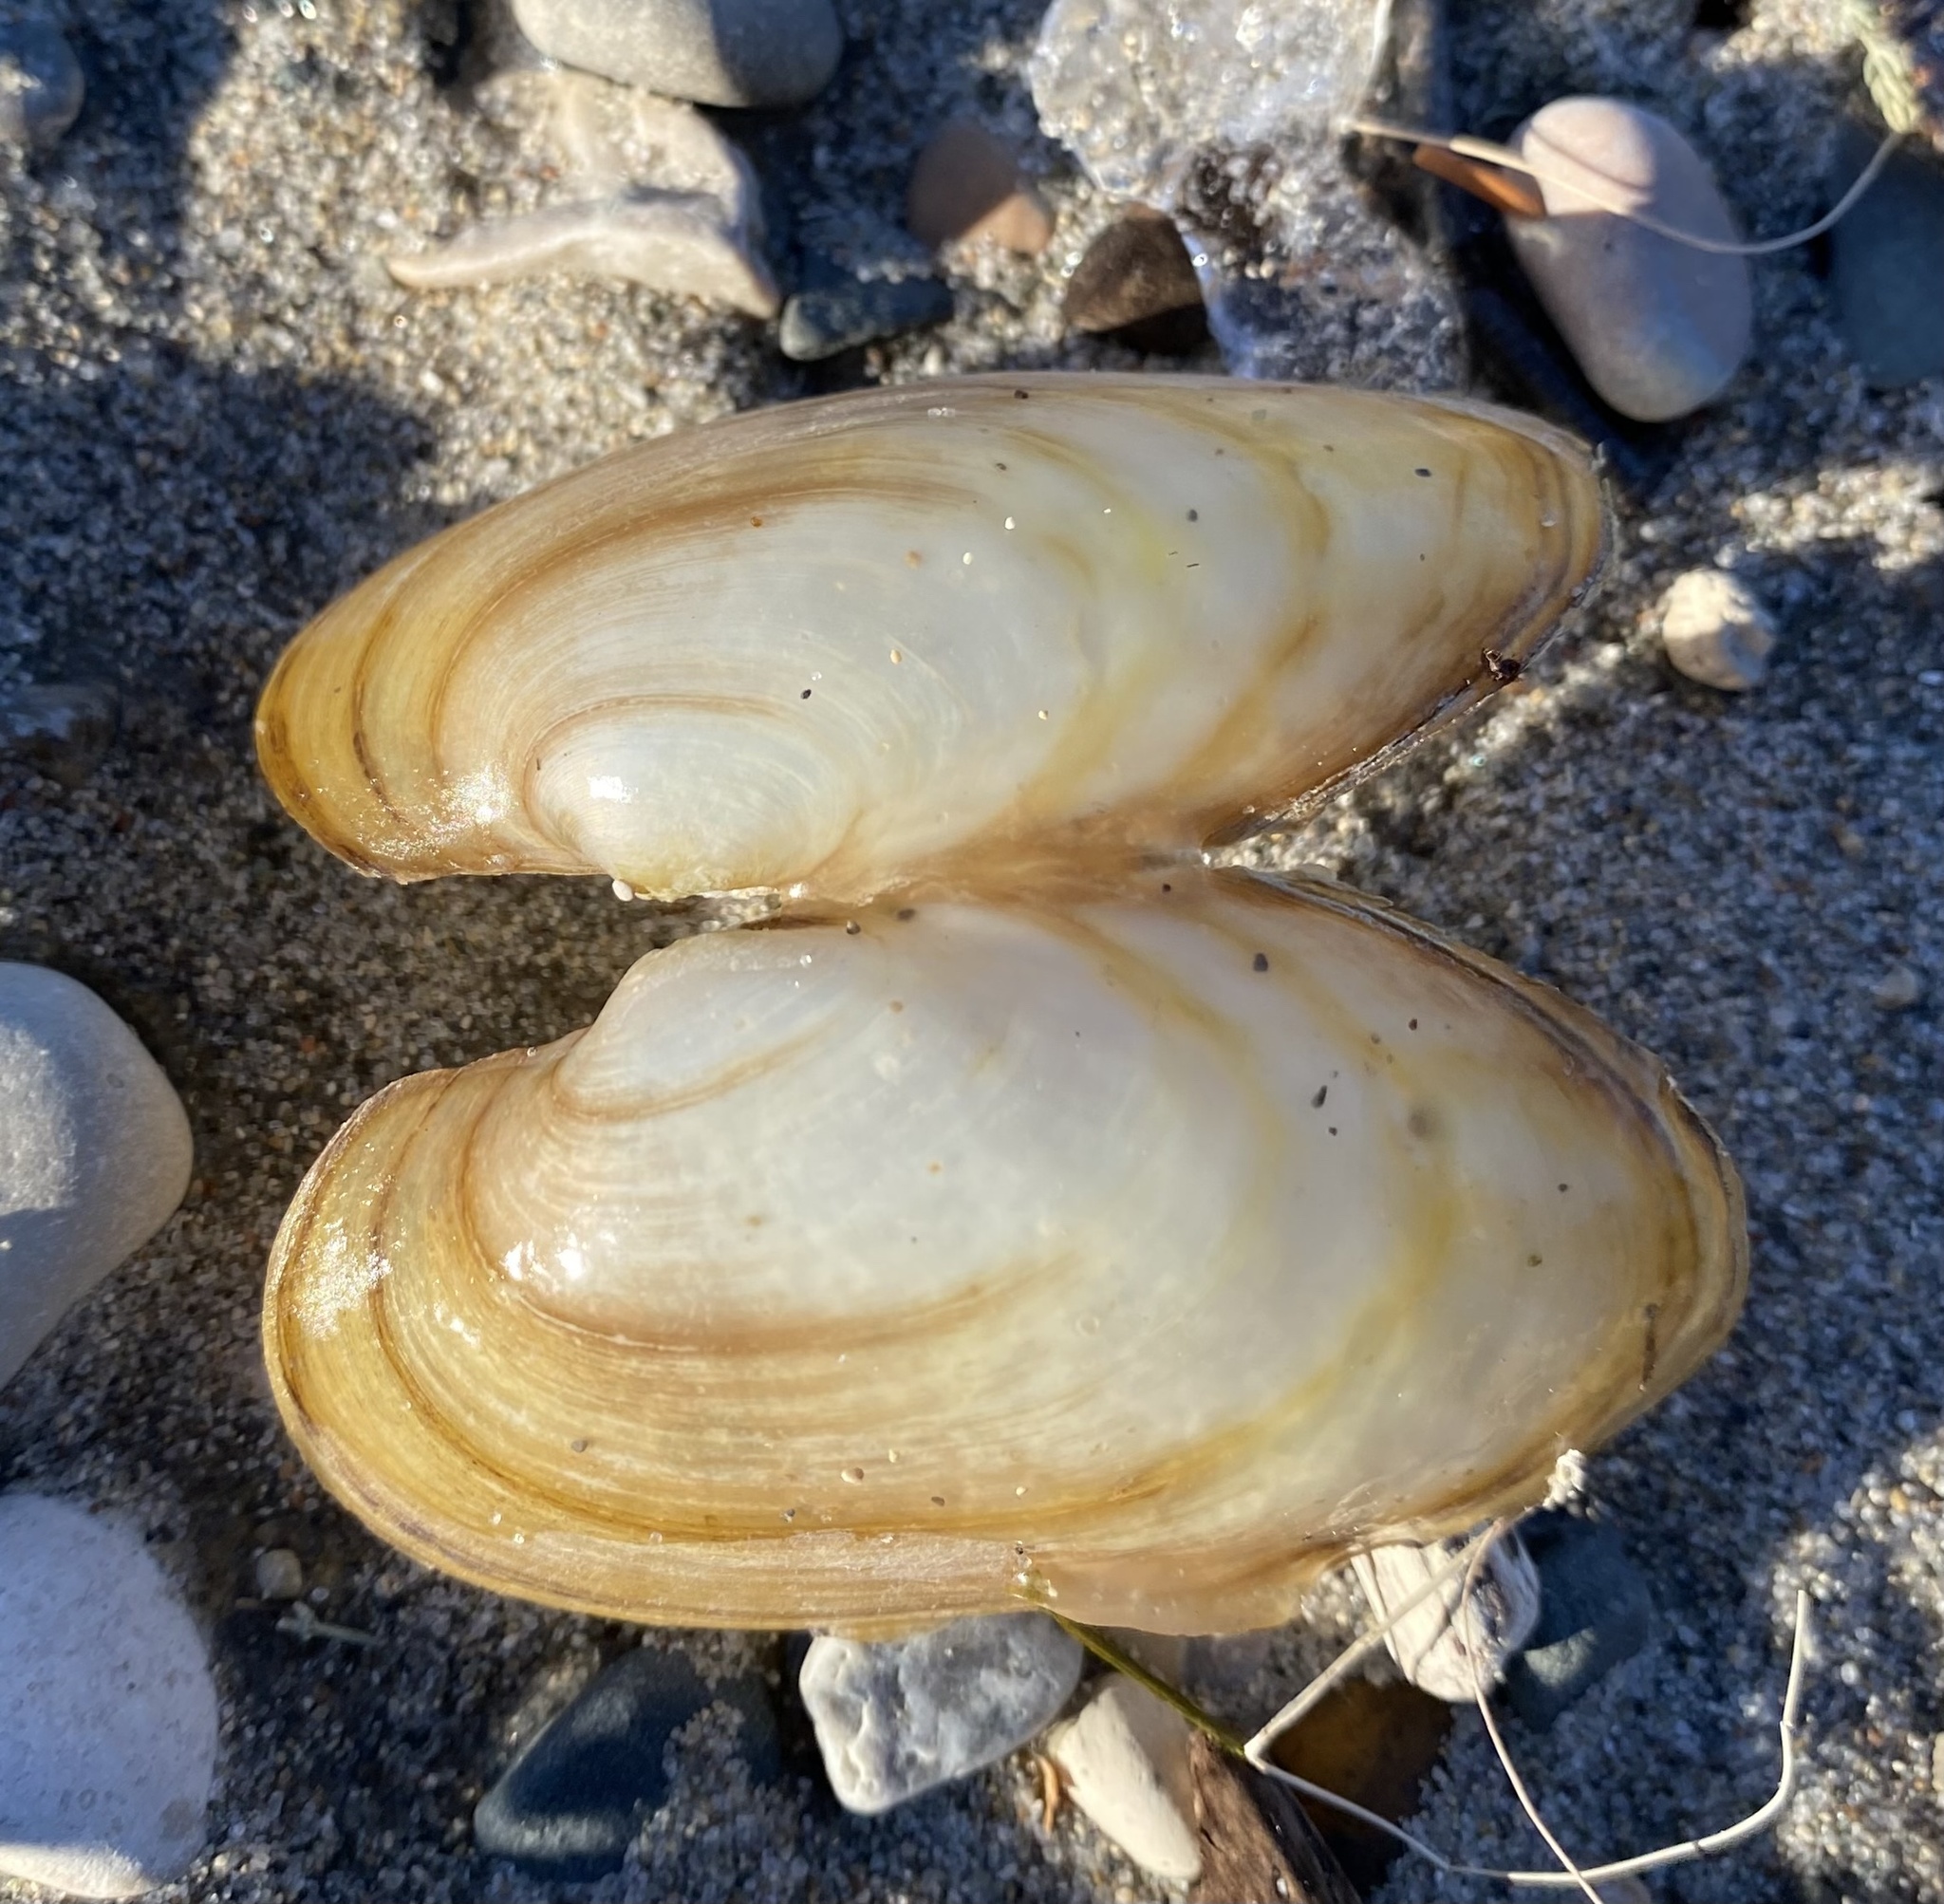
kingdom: Animalia
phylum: Mollusca
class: Bivalvia
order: Unionida
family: Unionidae
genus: Pyganodon
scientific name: Pyganodon grandis
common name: Giant floater
